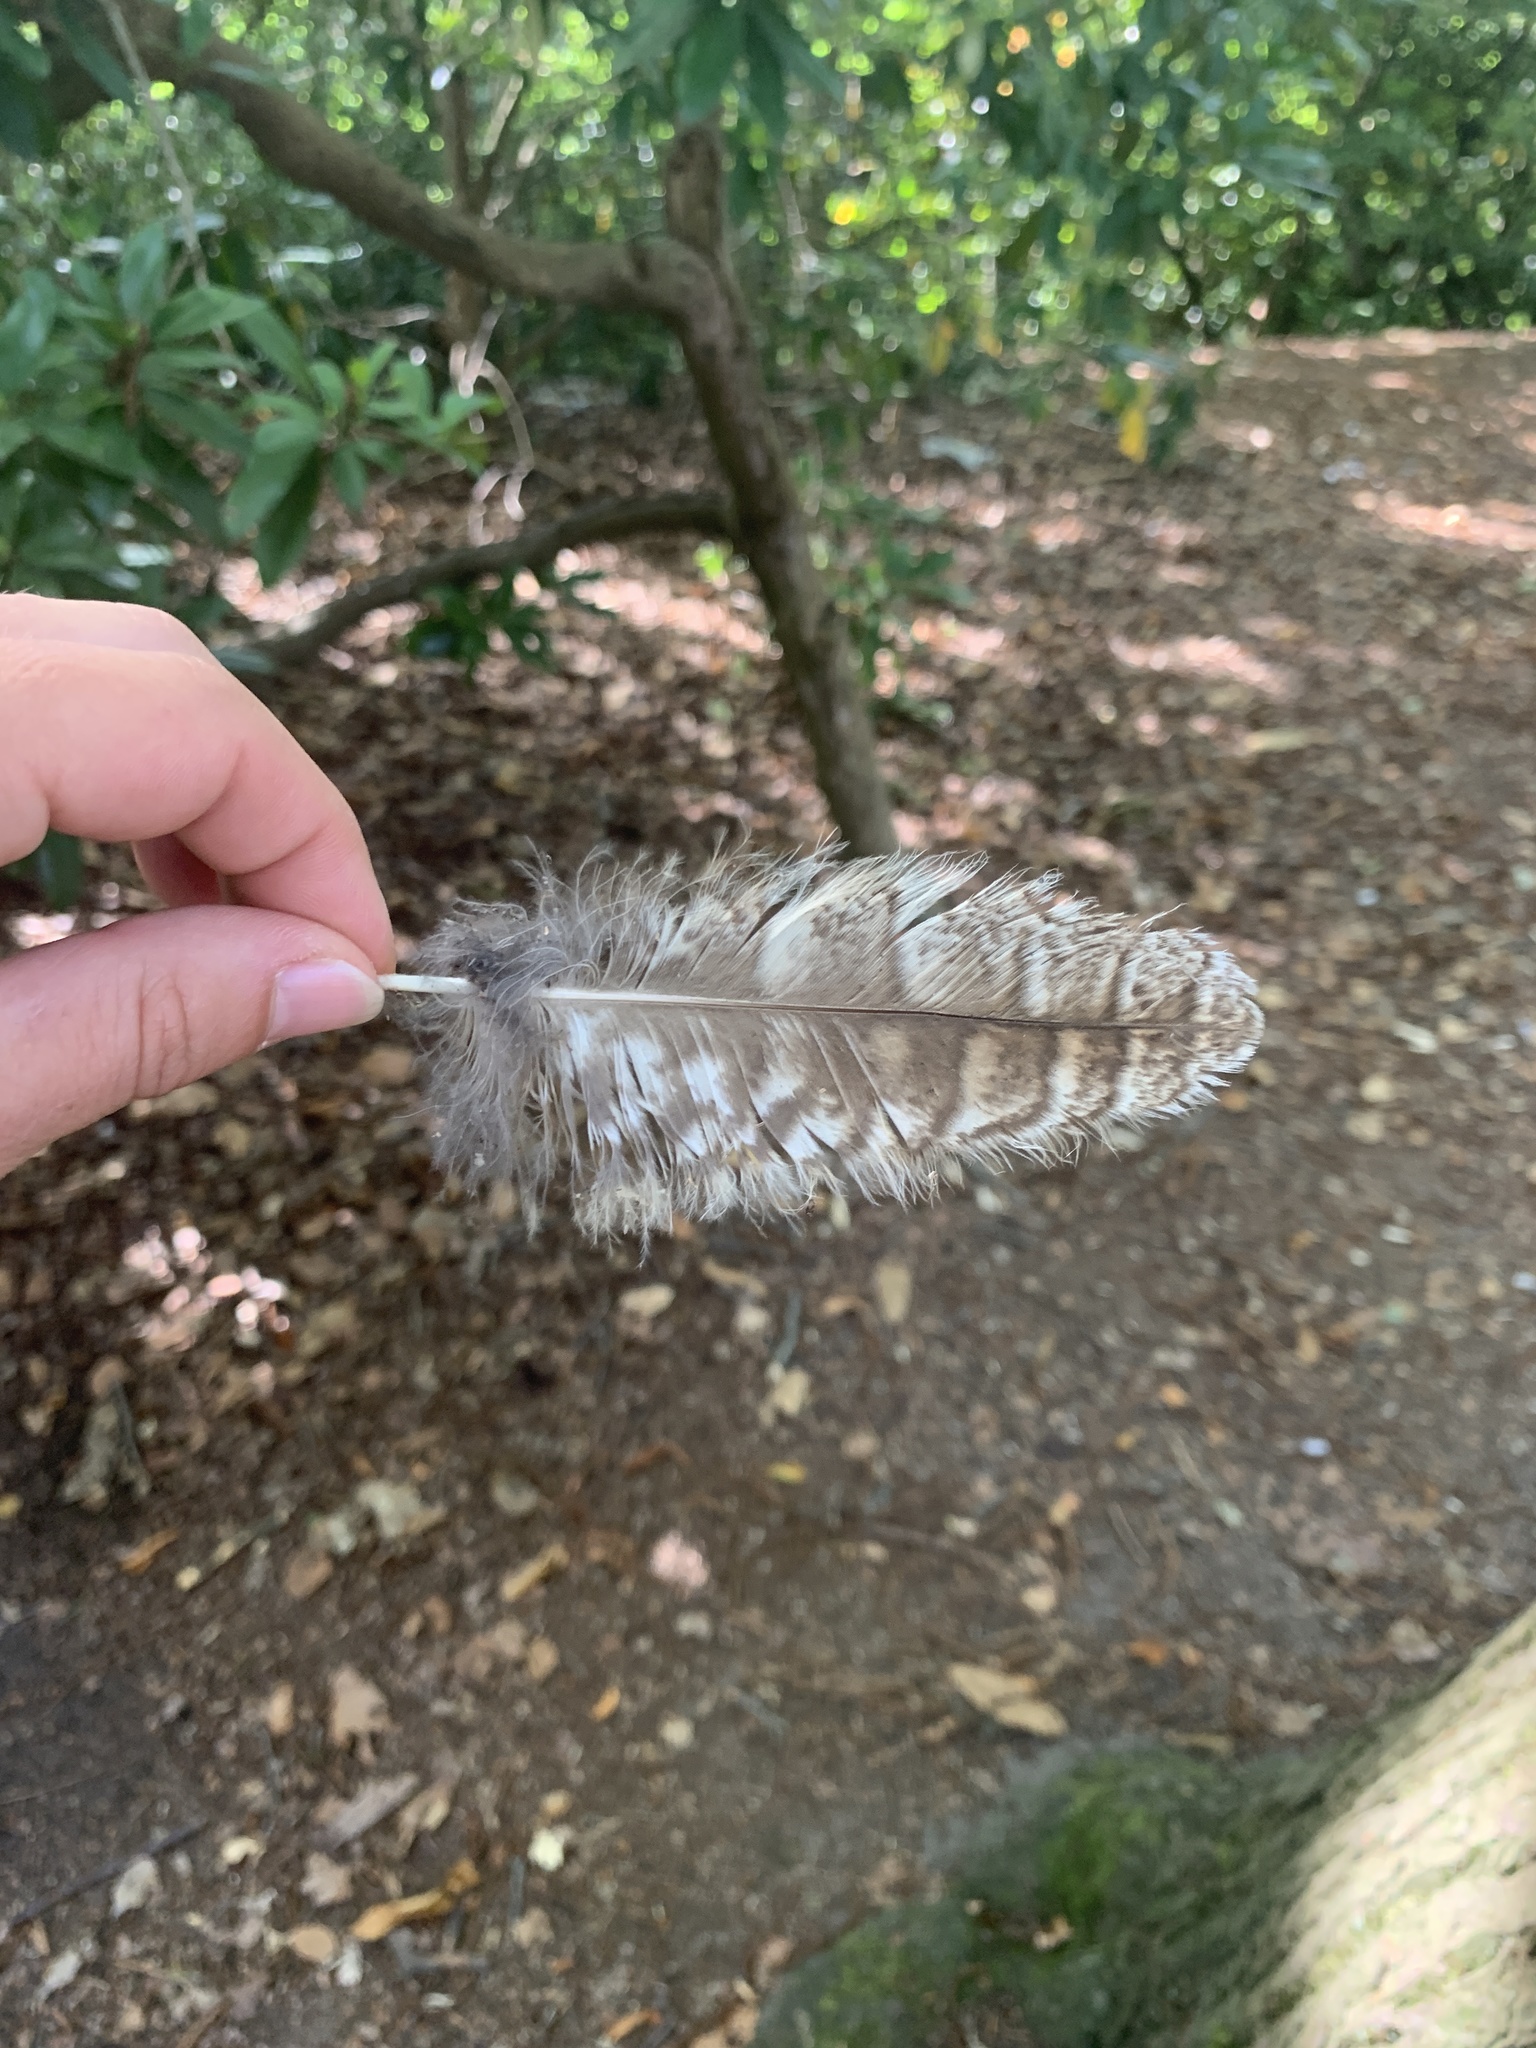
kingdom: Animalia
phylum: Chordata
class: Aves
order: Strigiformes
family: Strigidae
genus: Strix
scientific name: Strix aluco
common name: Tawny owl
